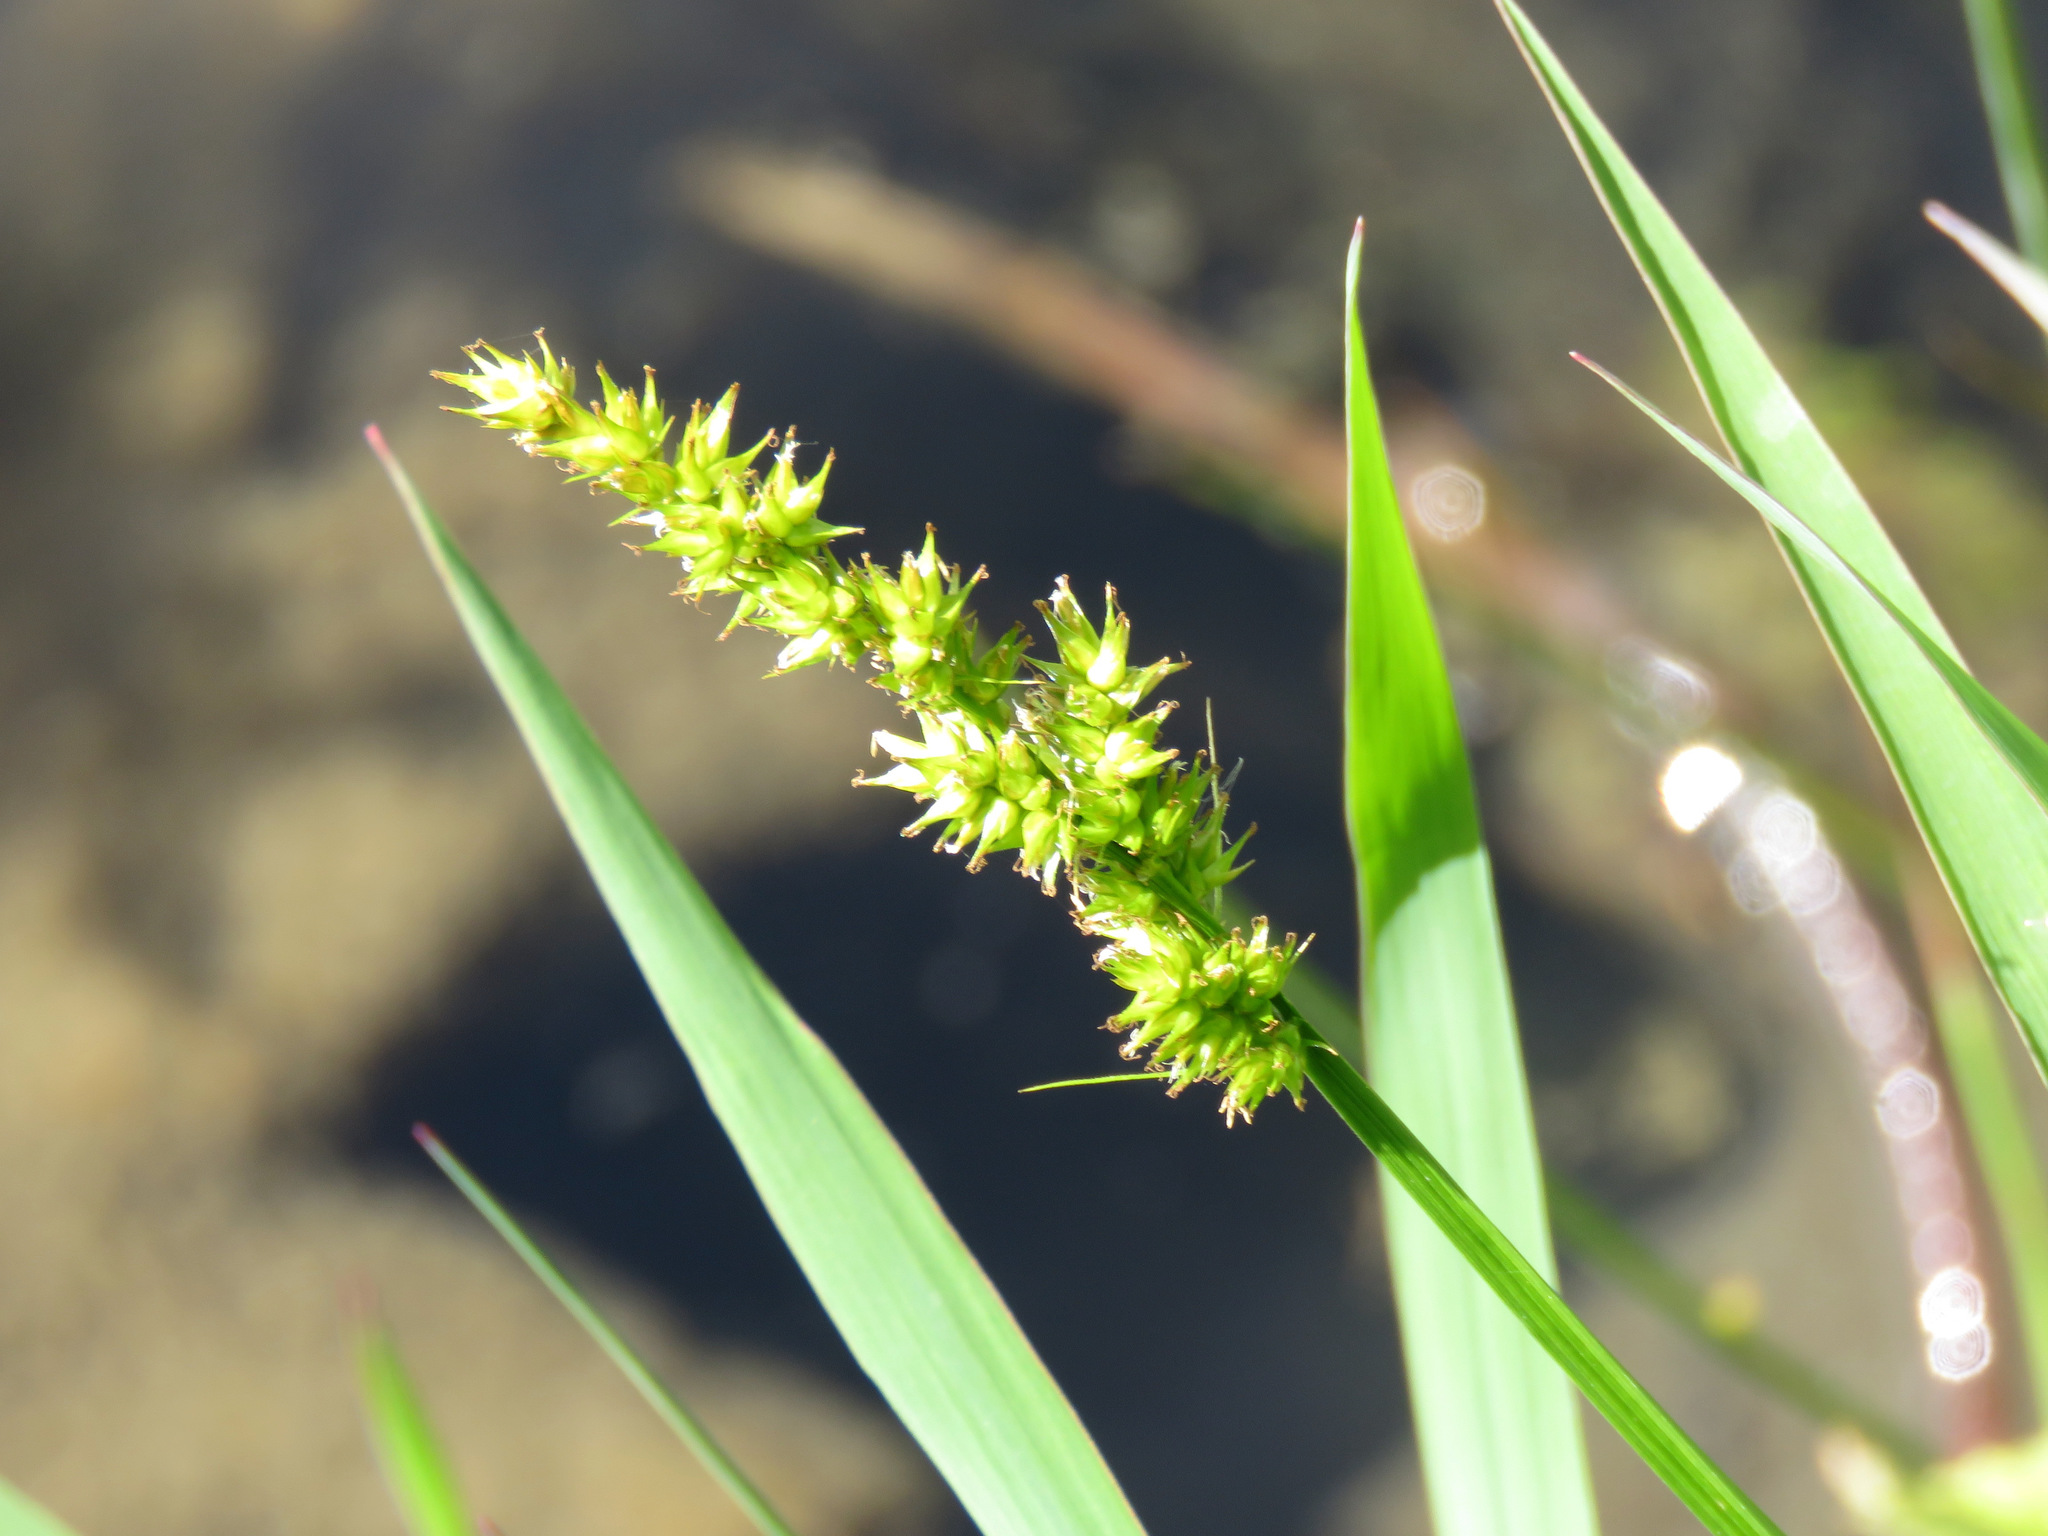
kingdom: Plantae
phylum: Tracheophyta
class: Liliopsida
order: Poales
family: Cyperaceae
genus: Carex
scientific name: Carex stipata
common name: Awl-fruited sedge
